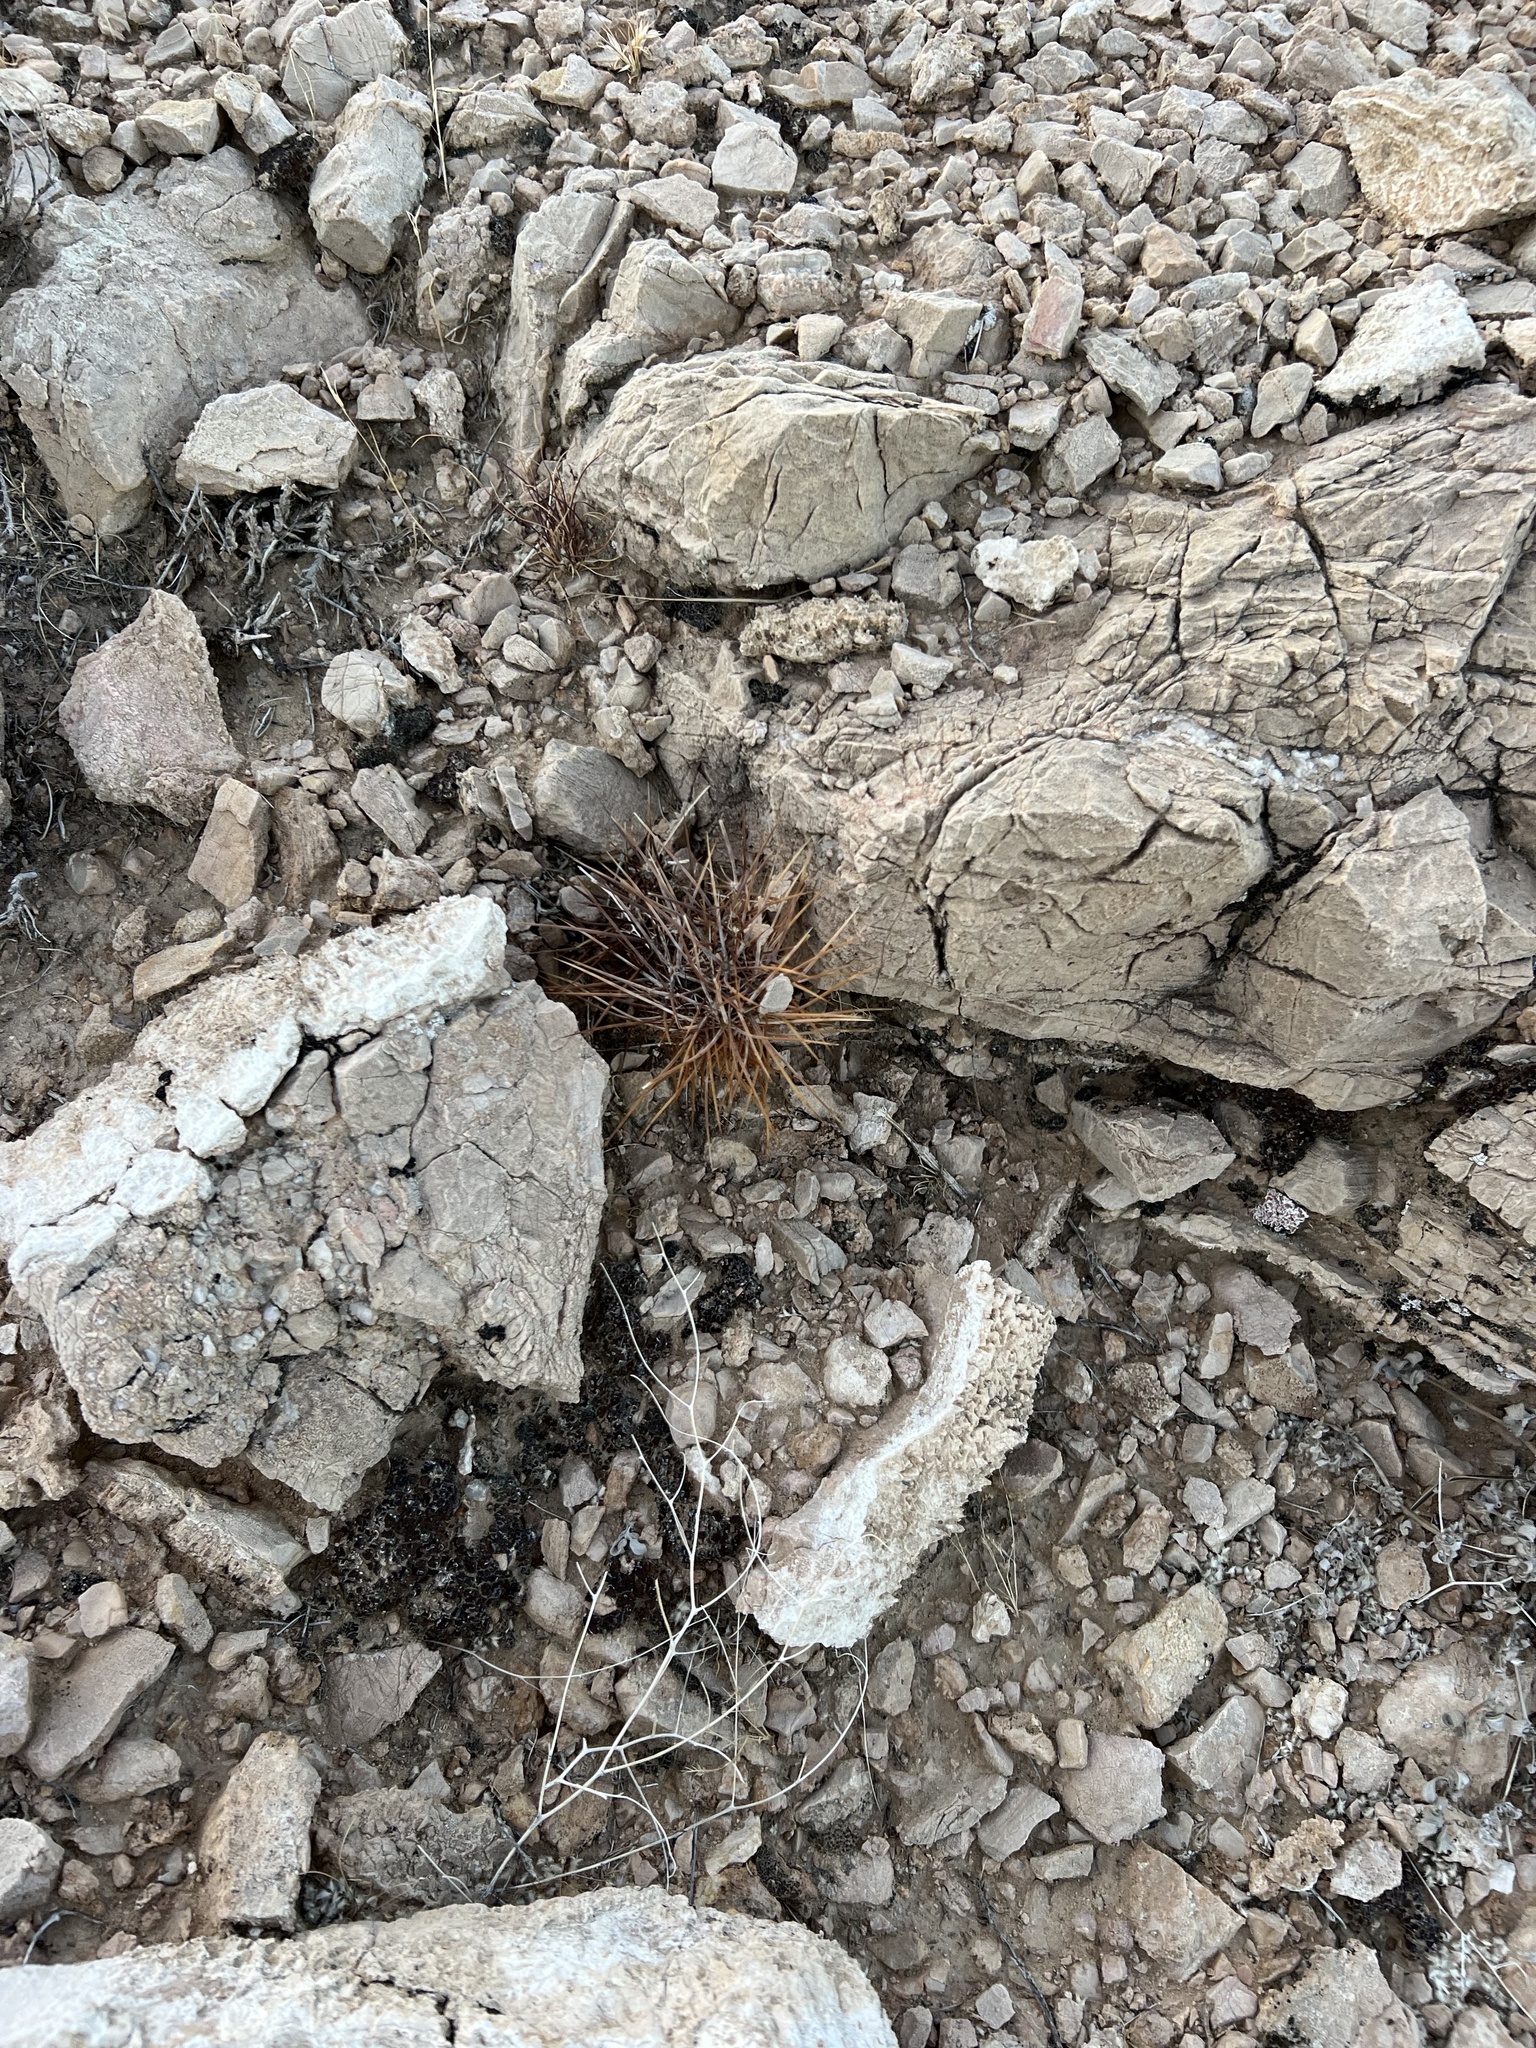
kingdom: Plantae
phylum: Tracheophyta
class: Magnoliopsida
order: Caryophyllales
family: Cactaceae
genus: Echinocereus
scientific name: Echinocereus engelmannii
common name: Engelmann's hedgehog cactus
